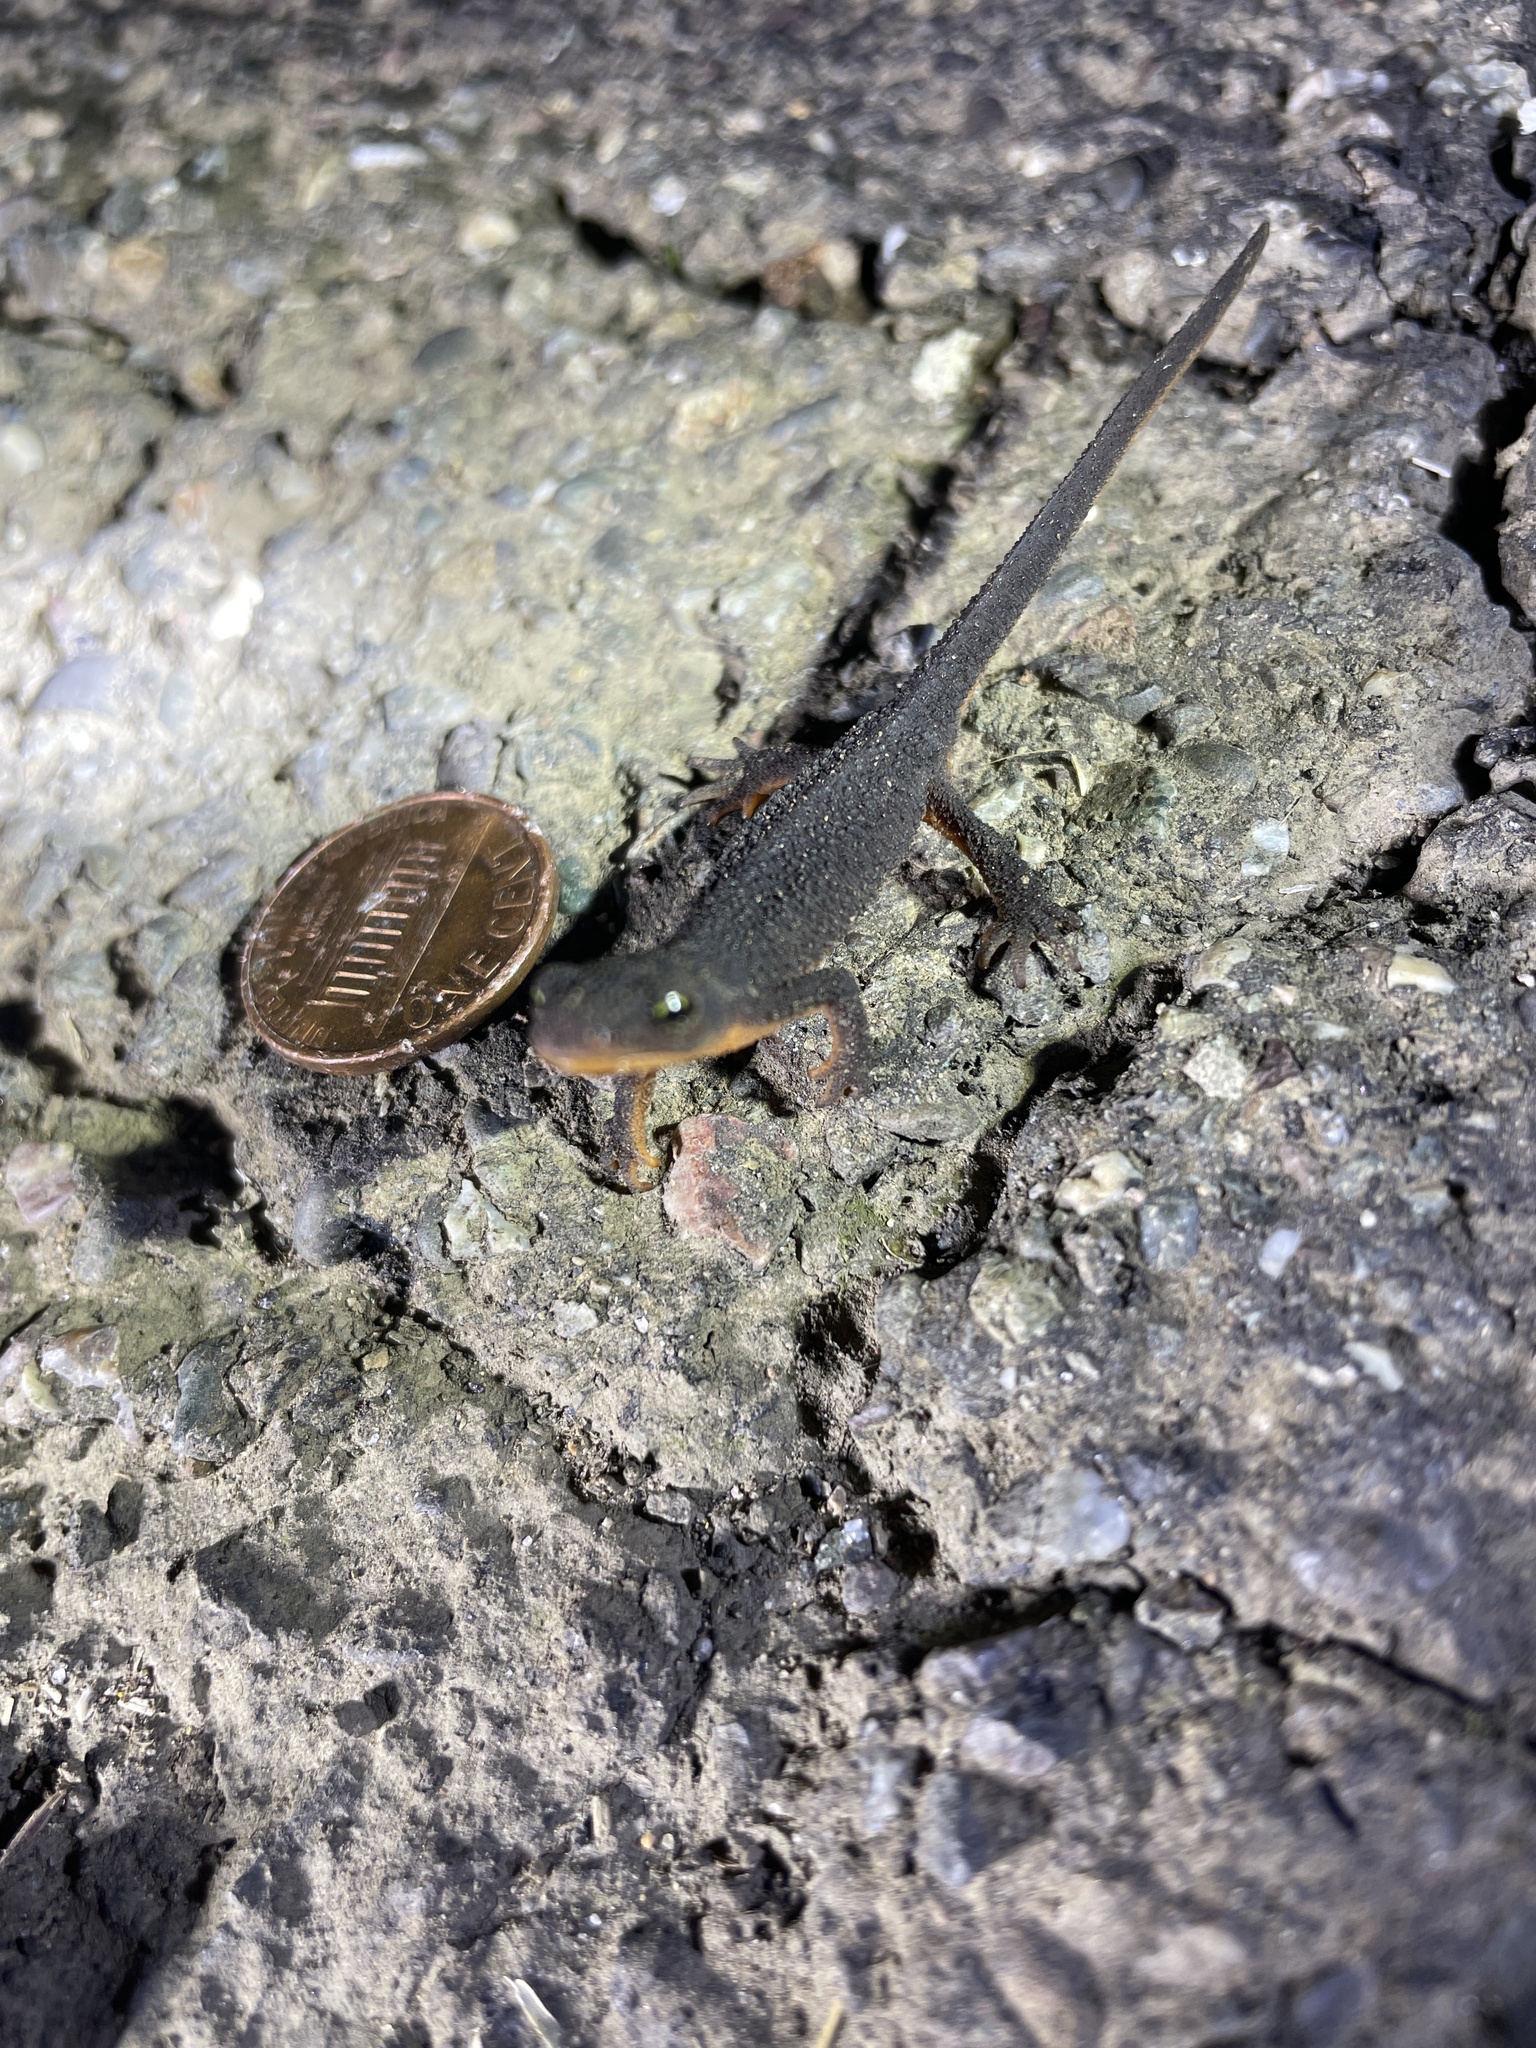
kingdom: Animalia
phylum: Chordata
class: Amphibia
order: Caudata
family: Salamandridae
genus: Taricha
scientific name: Taricha granulosa
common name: Roughskin newt
